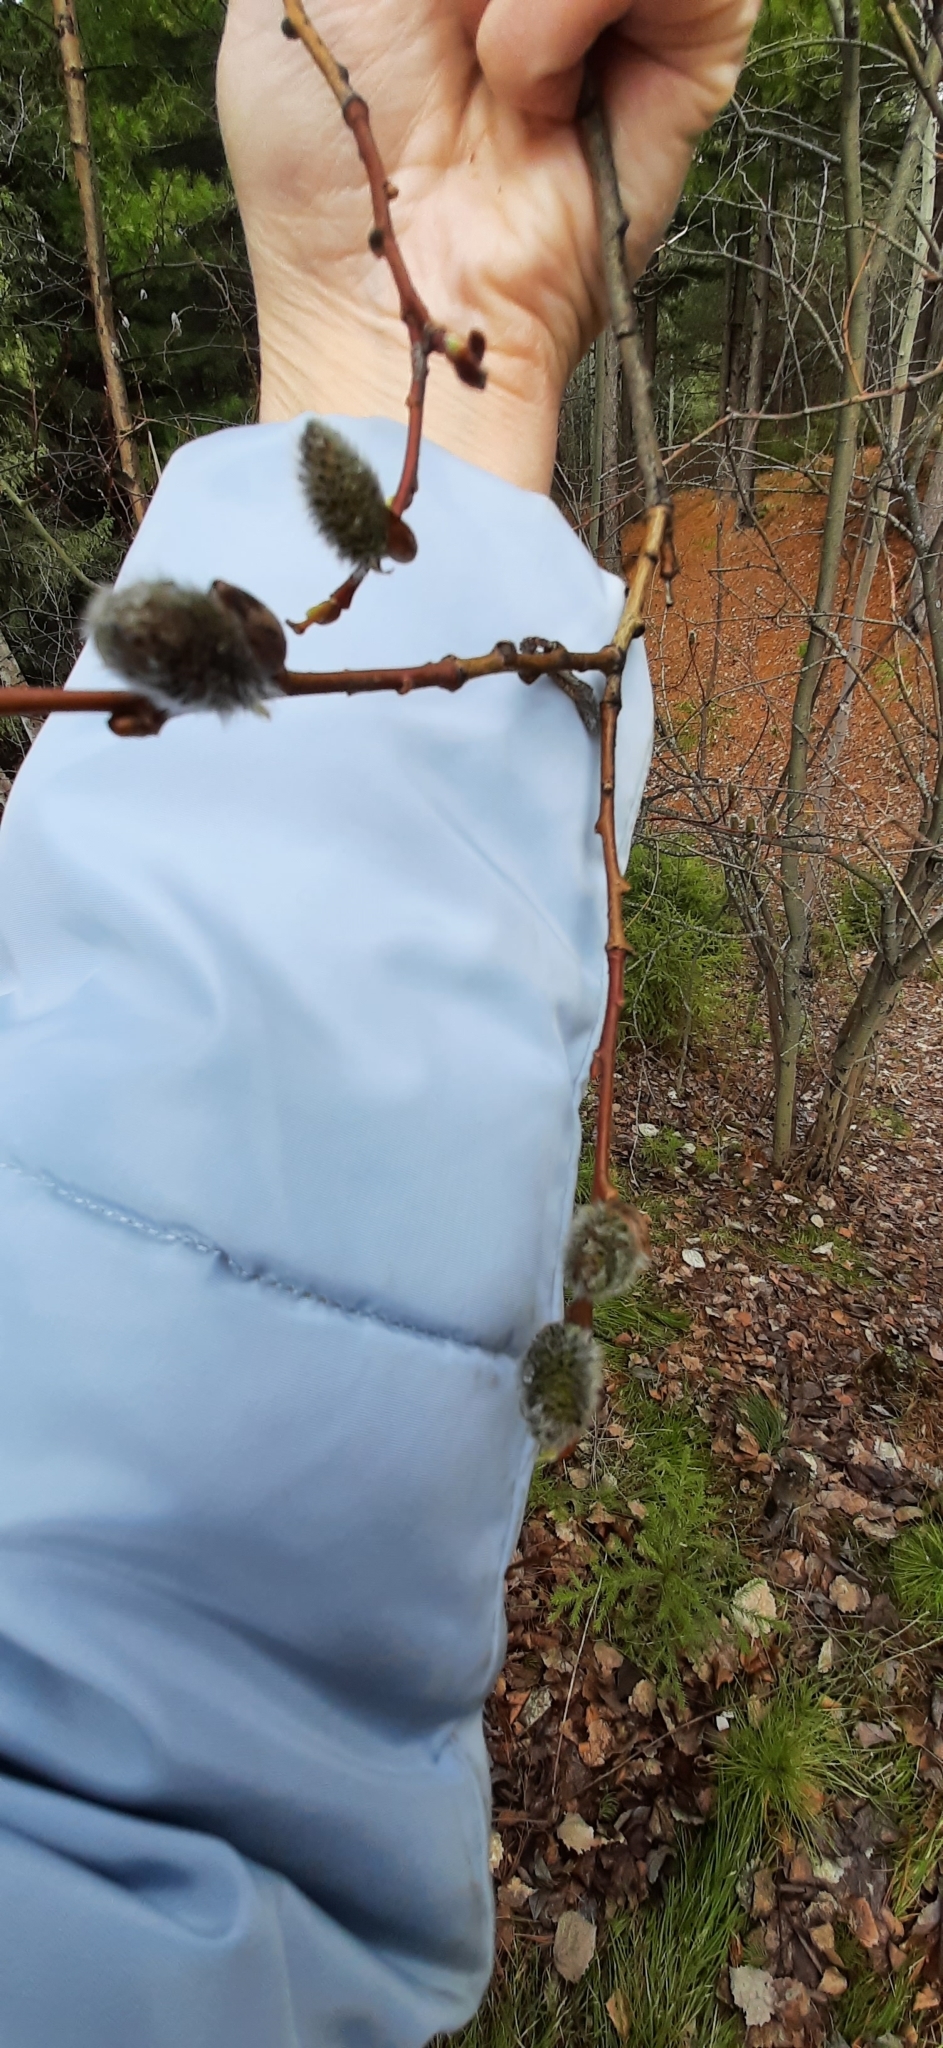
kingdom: Plantae
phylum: Tracheophyta
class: Magnoliopsida
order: Malpighiales
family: Salicaceae
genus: Salix
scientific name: Salix caprea
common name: Goat willow
